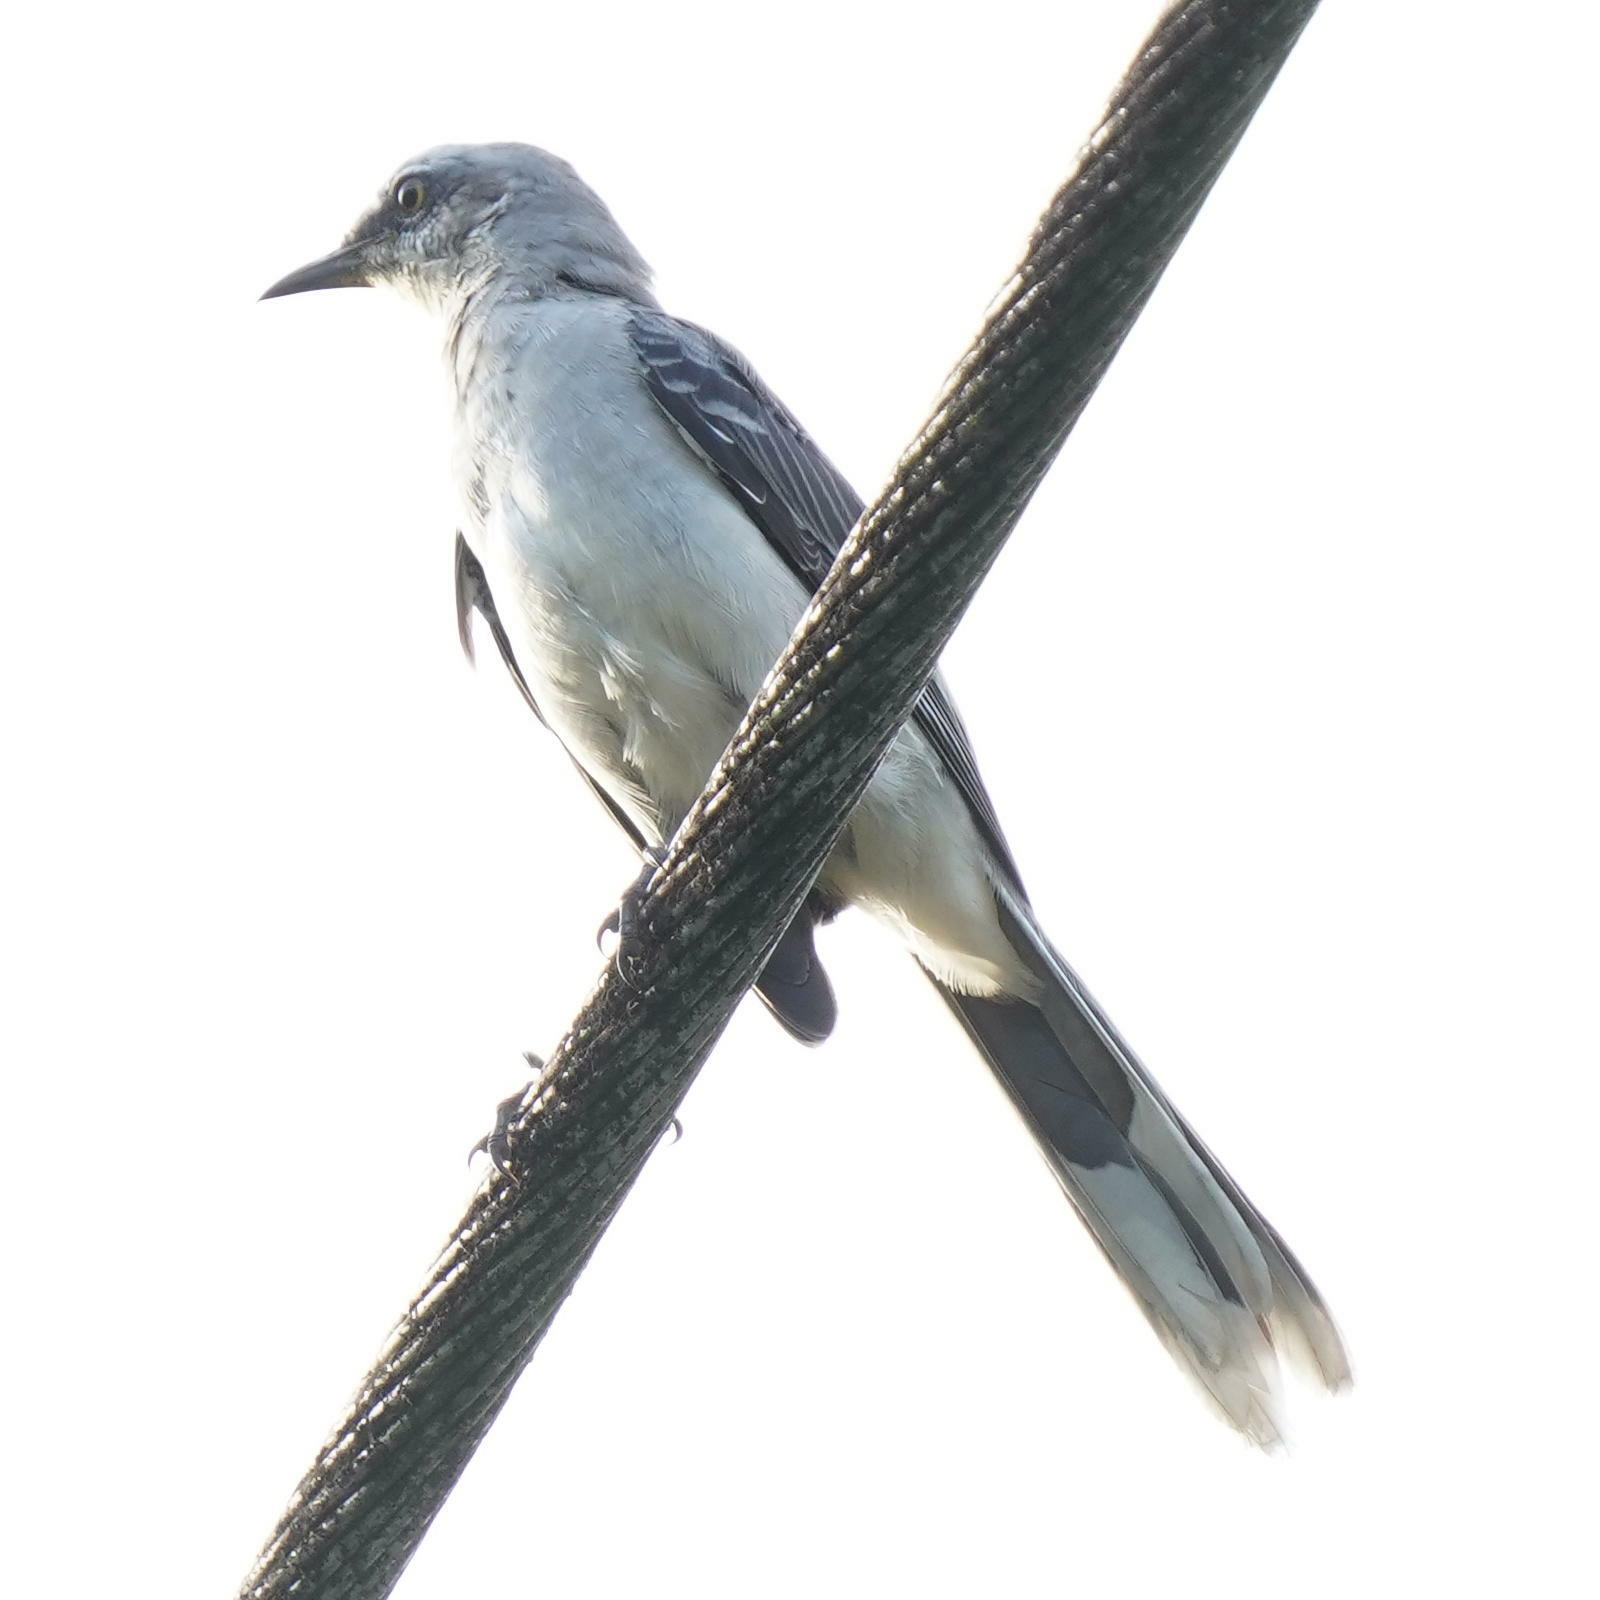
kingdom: Animalia
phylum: Chordata
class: Aves
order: Passeriformes
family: Mimidae
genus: Mimus
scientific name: Mimus gilvus
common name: Tropical mockingbird
